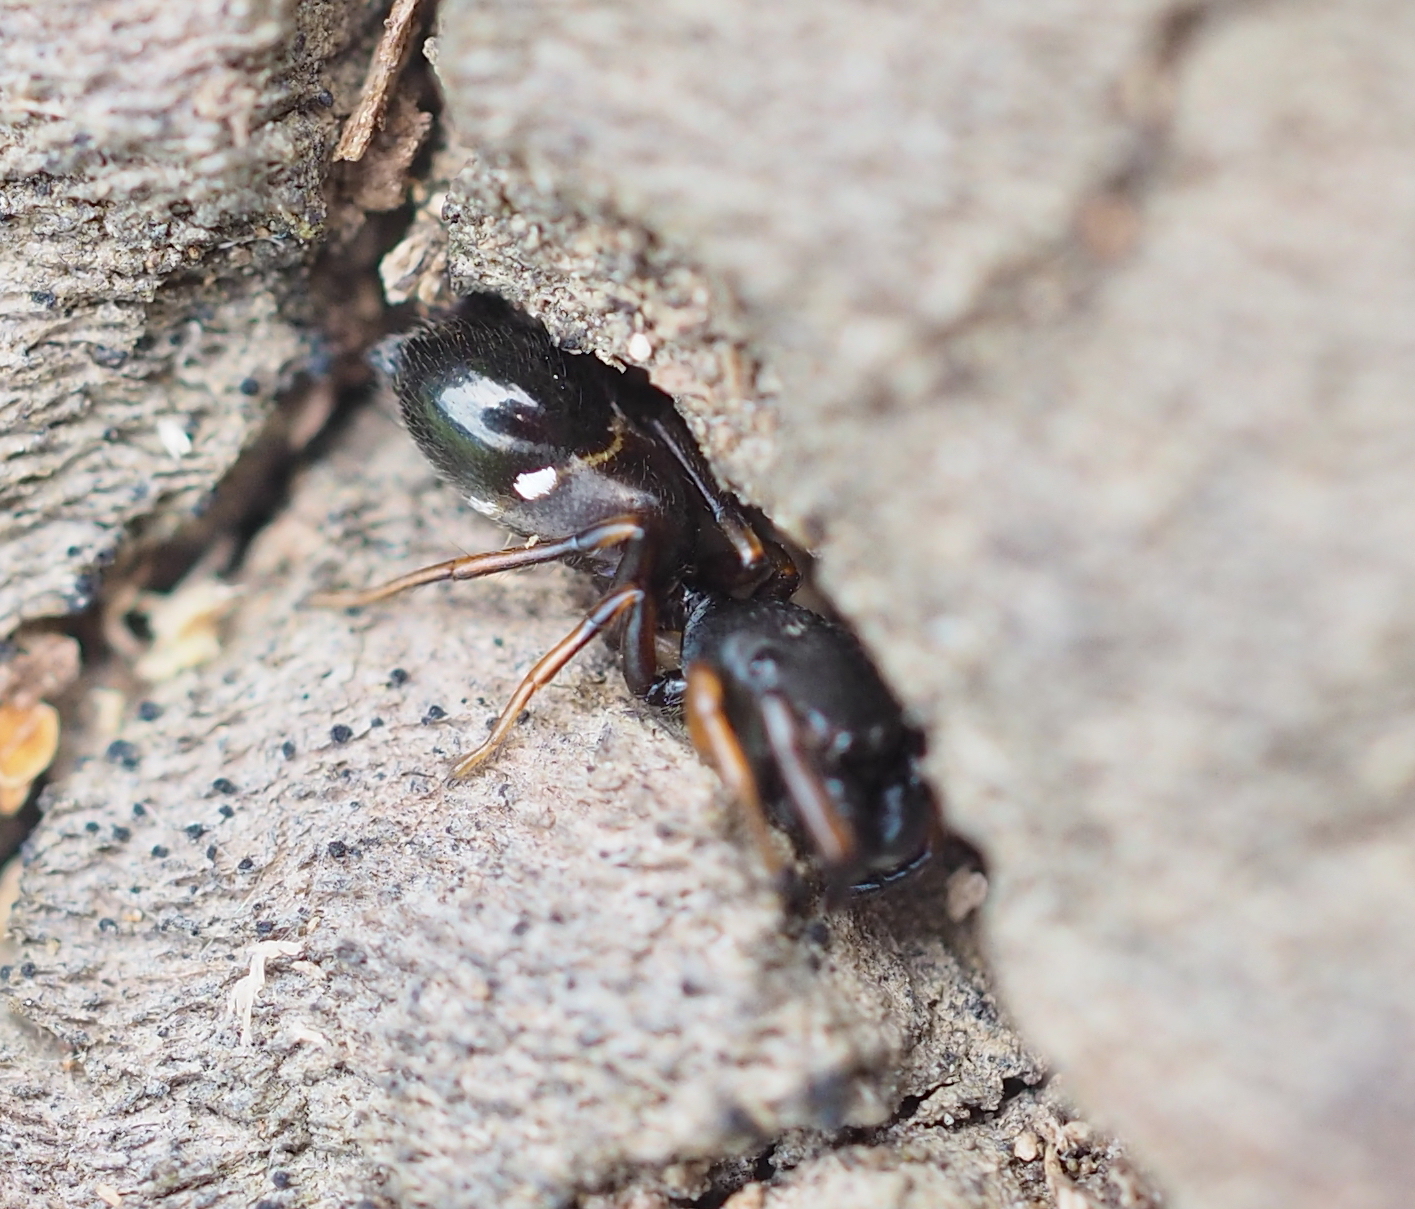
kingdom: Animalia
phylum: Arthropoda
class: Arachnida
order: Araneae
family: Salticidae
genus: Leptorchestes
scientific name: Leptorchestes berolinensis
